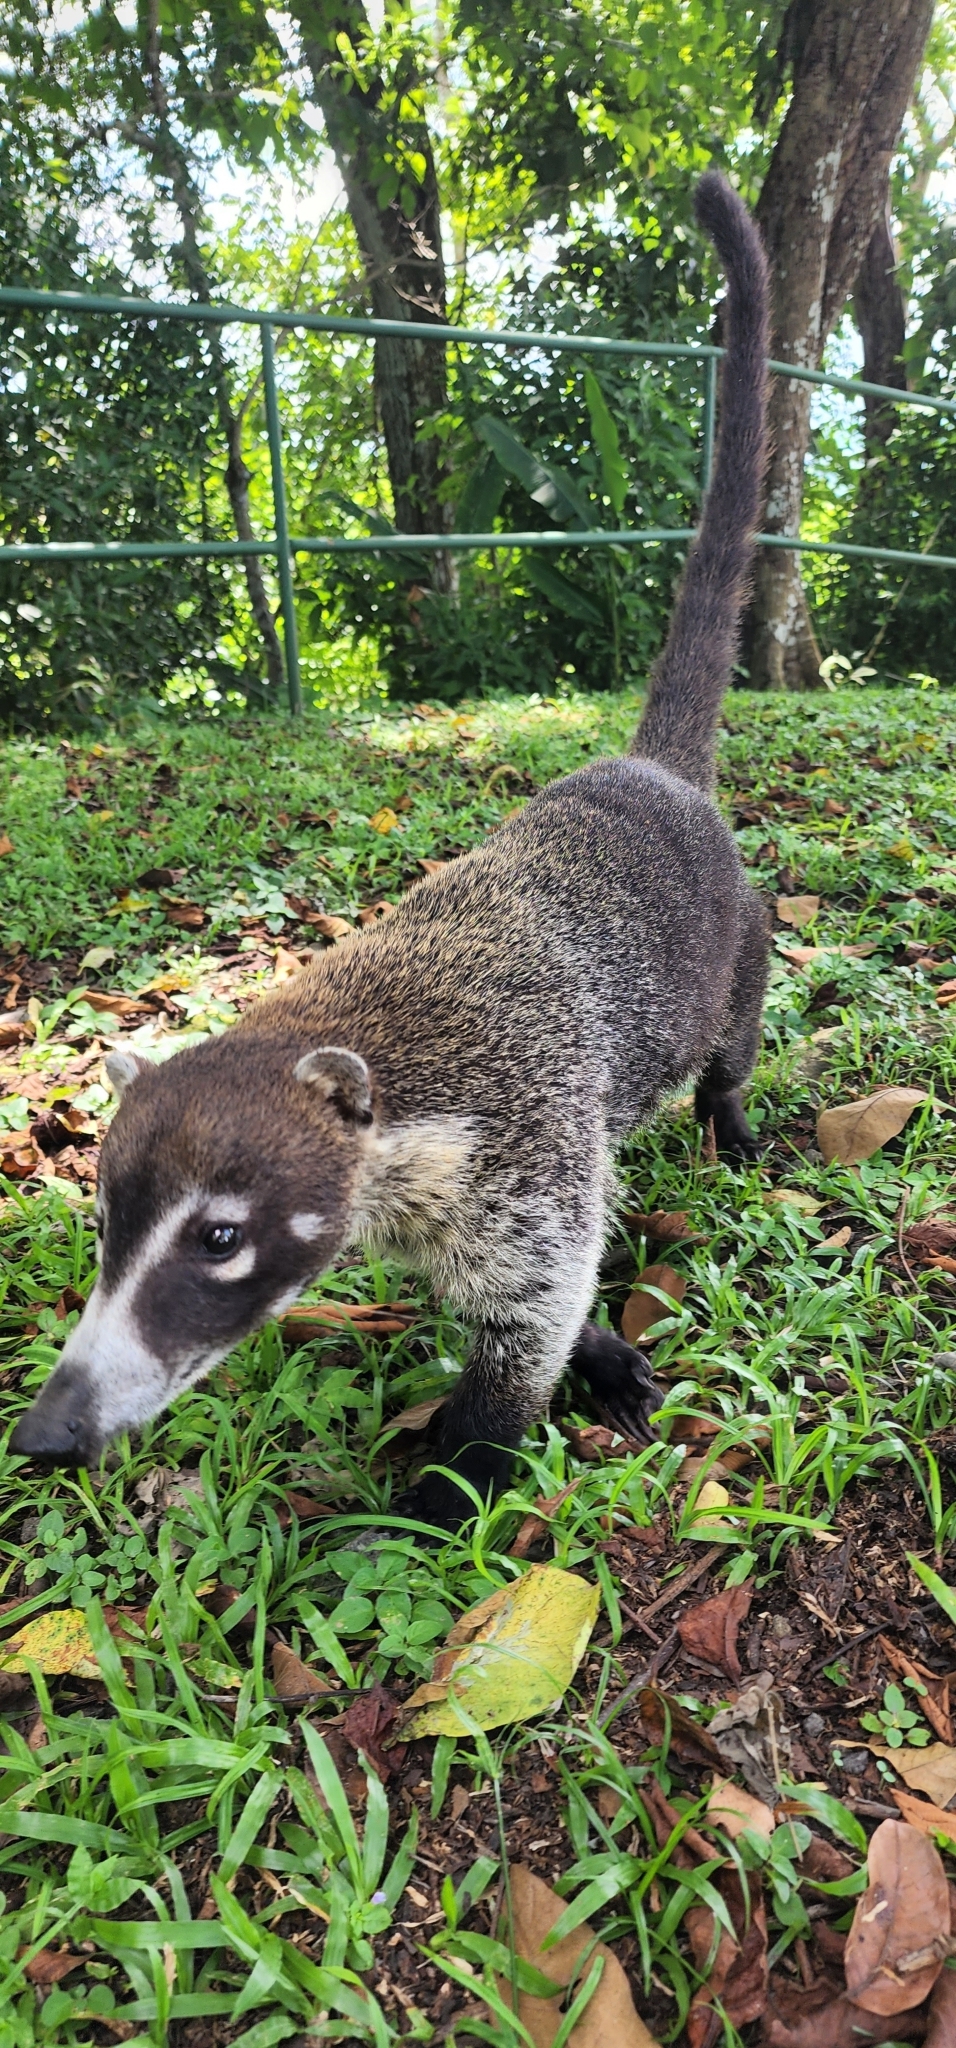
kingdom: Animalia
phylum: Chordata
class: Mammalia
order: Carnivora
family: Procyonidae
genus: Nasua
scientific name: Nasua narica
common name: White-nosed coati
